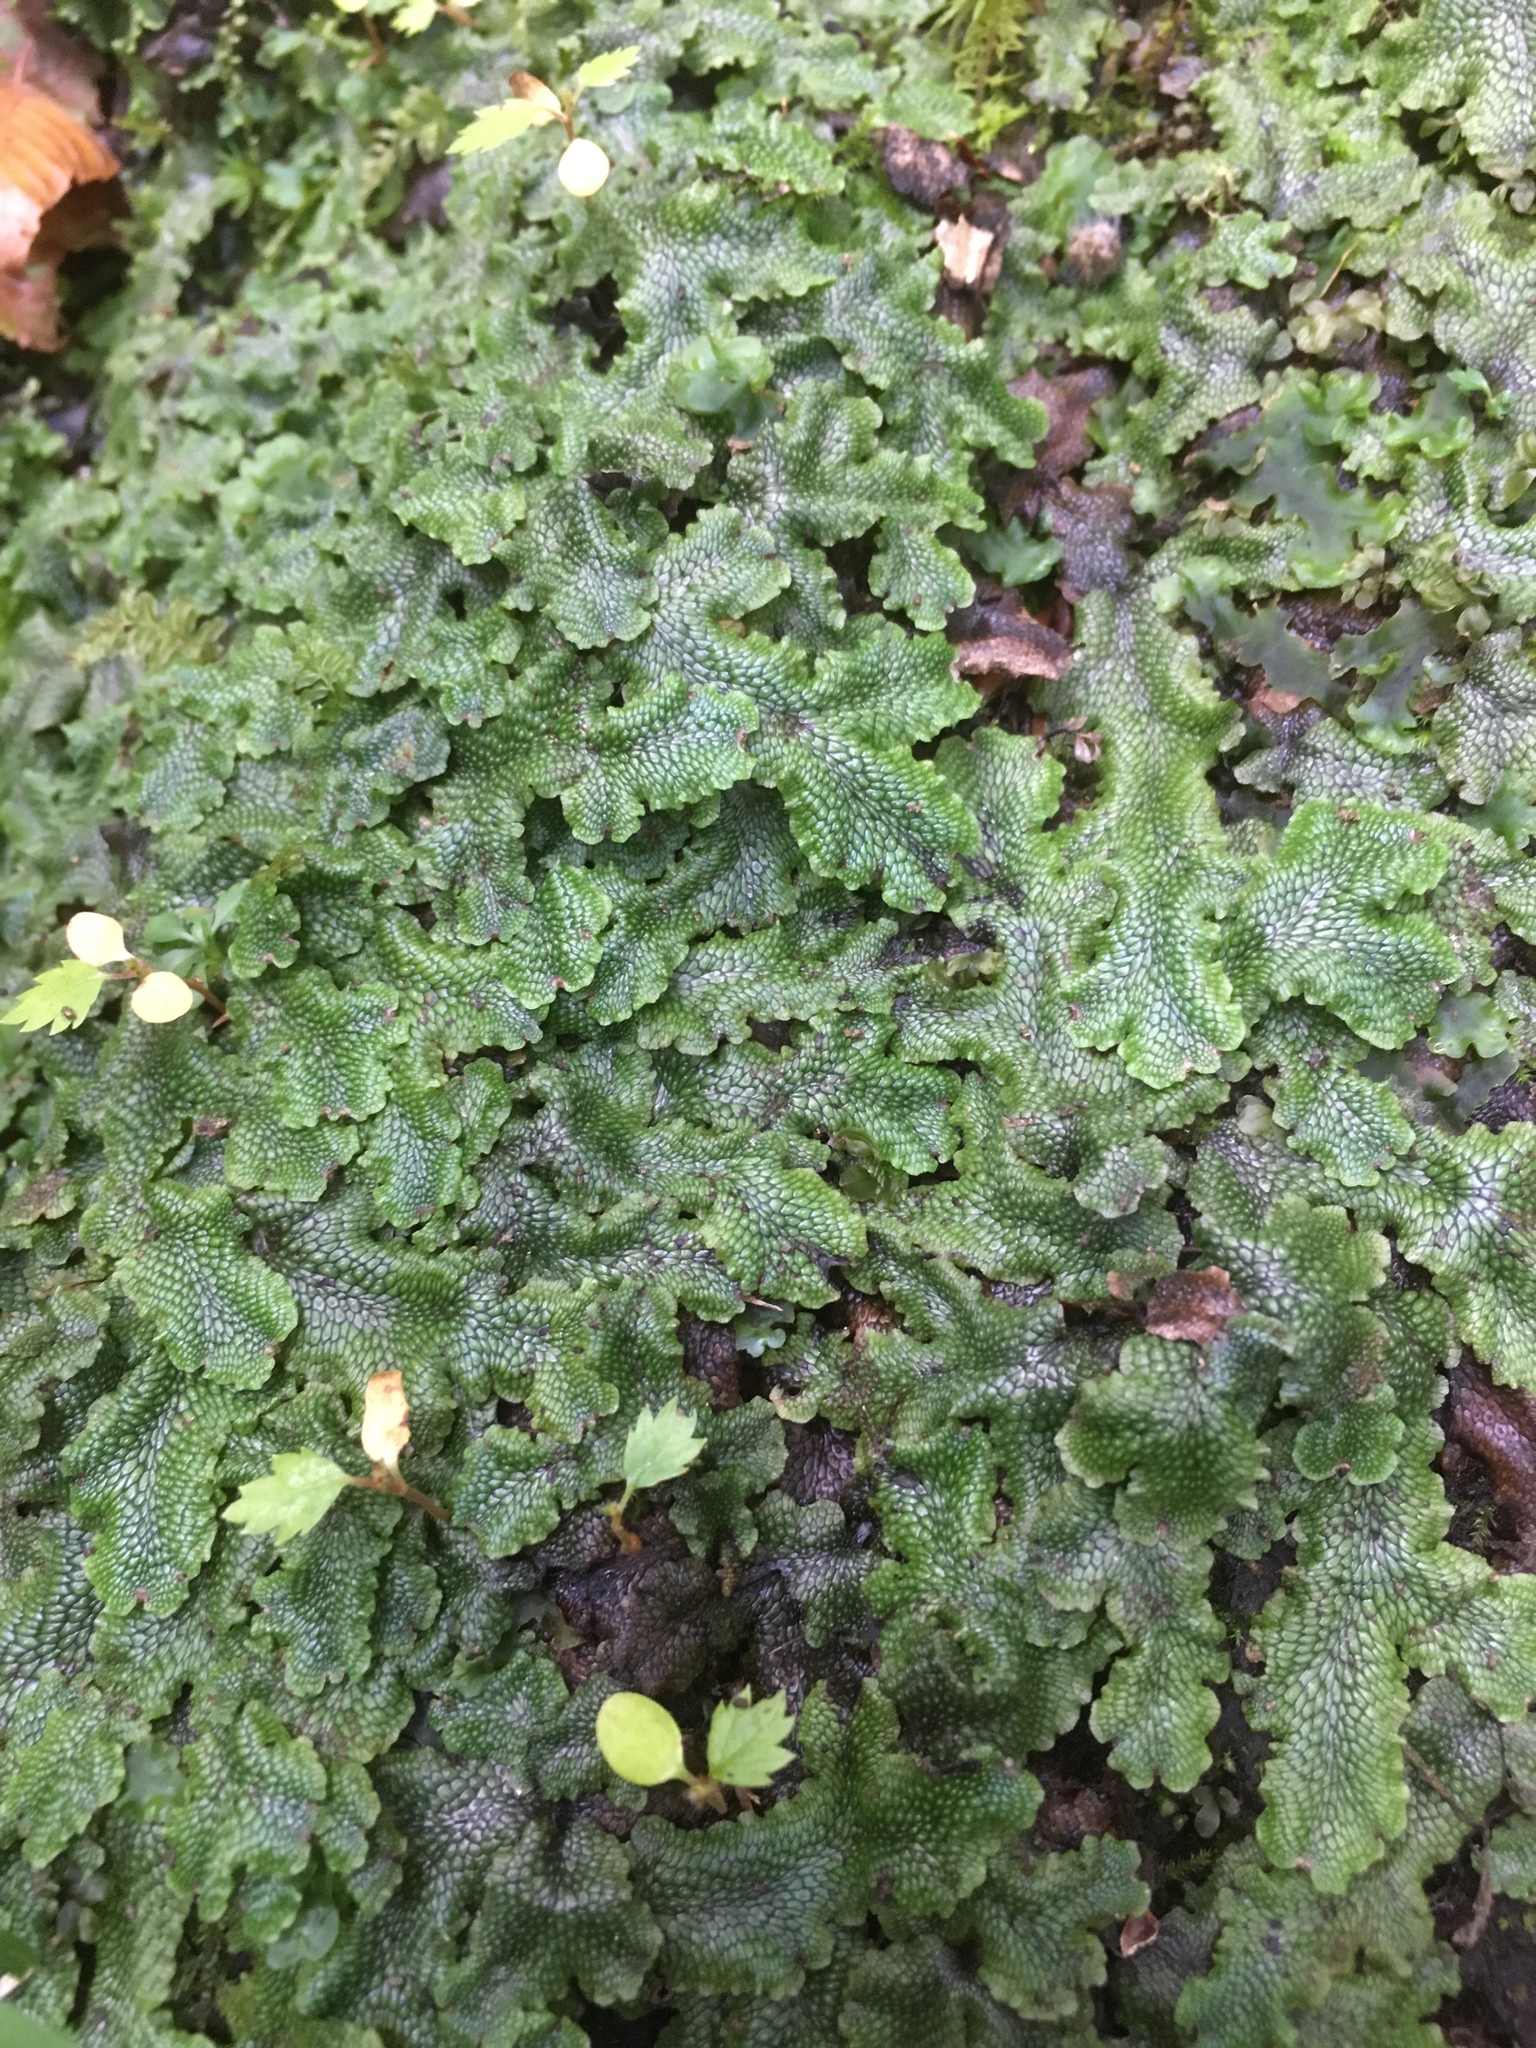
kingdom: Plantae
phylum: Marchantiophyta
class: Marchantiopsida
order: Marchantiales
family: Conocephalaceae
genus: Conocephalum
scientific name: Conocephalum salebrosum
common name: Cat-tongue liverwort
